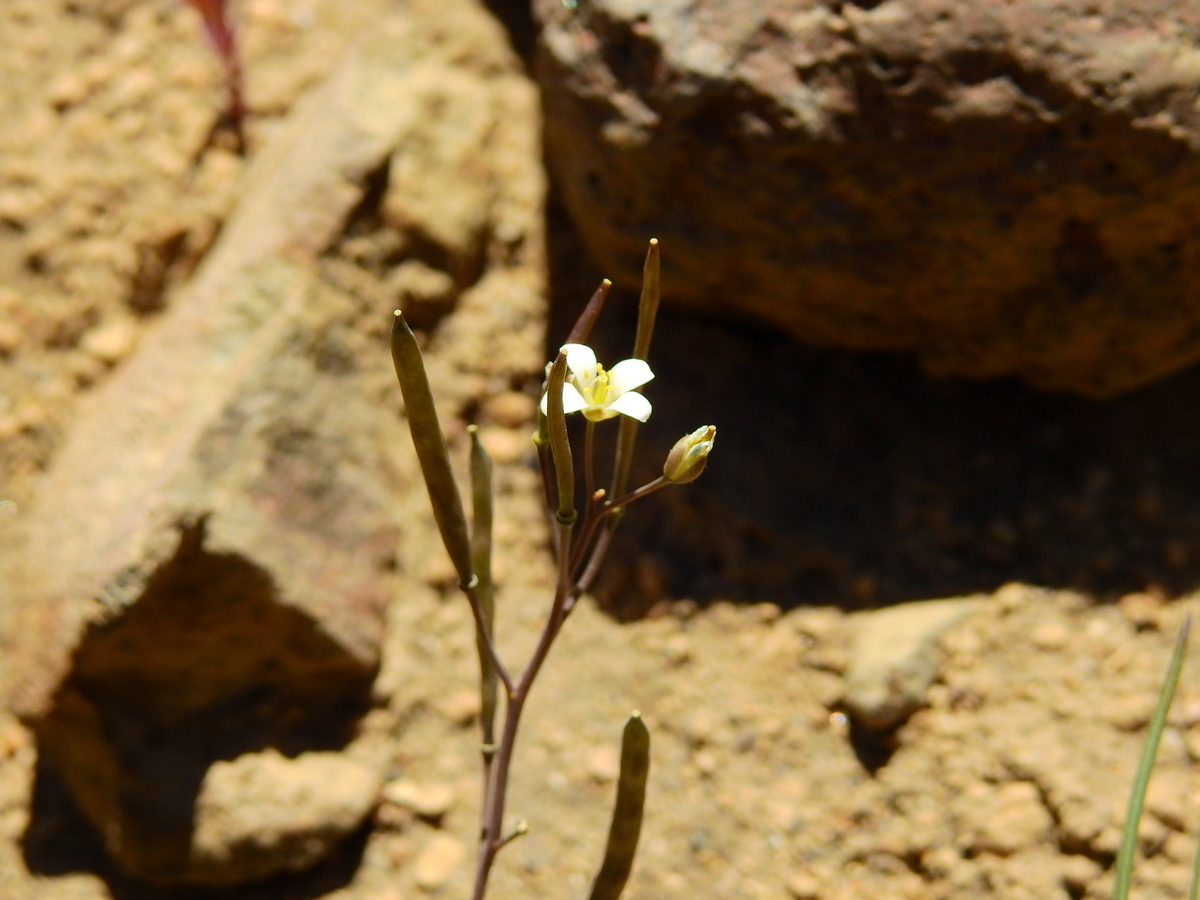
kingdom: Plantae
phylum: Tracheophyta
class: Magnoliopsida
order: Brassicales
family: Brassicaceae
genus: Stenodraba
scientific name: Stenodraba parvifolia
